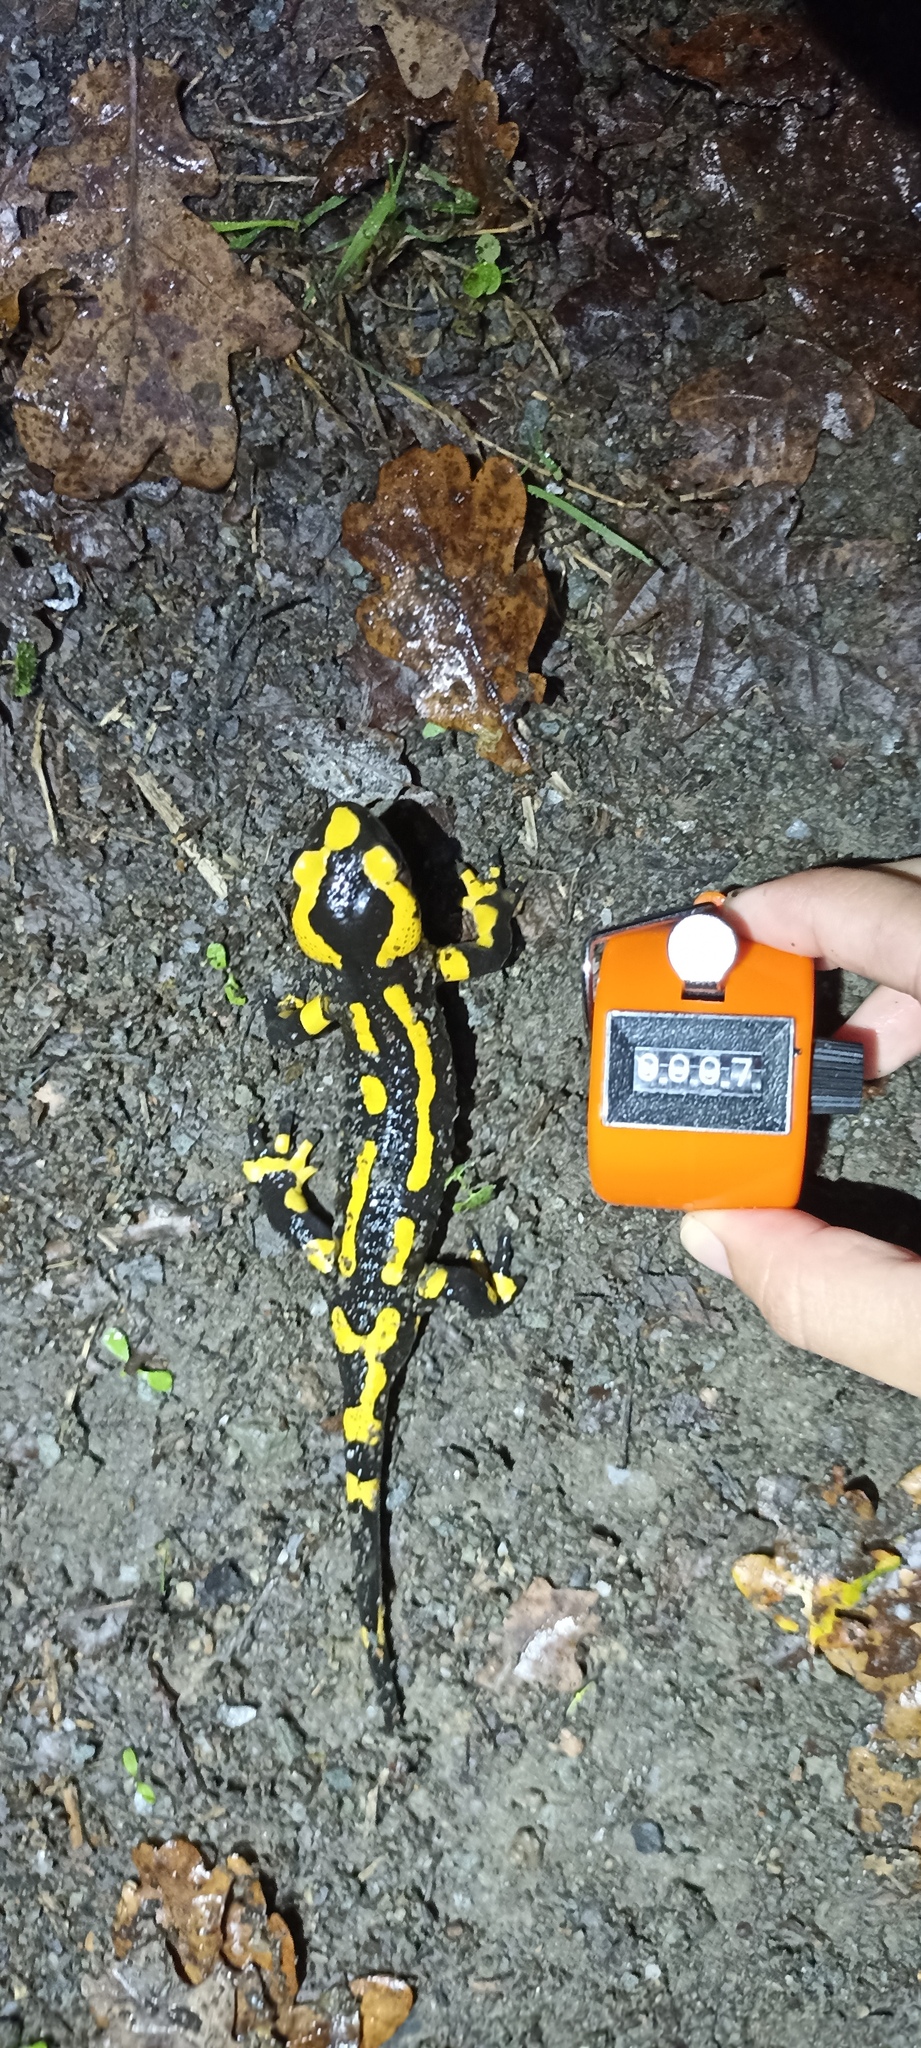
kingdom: Animalia
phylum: Chordata
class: Amphibia
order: Caudata
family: Salamandridae
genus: Salamandra
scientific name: Salamandra salamandra
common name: Fire salamander
